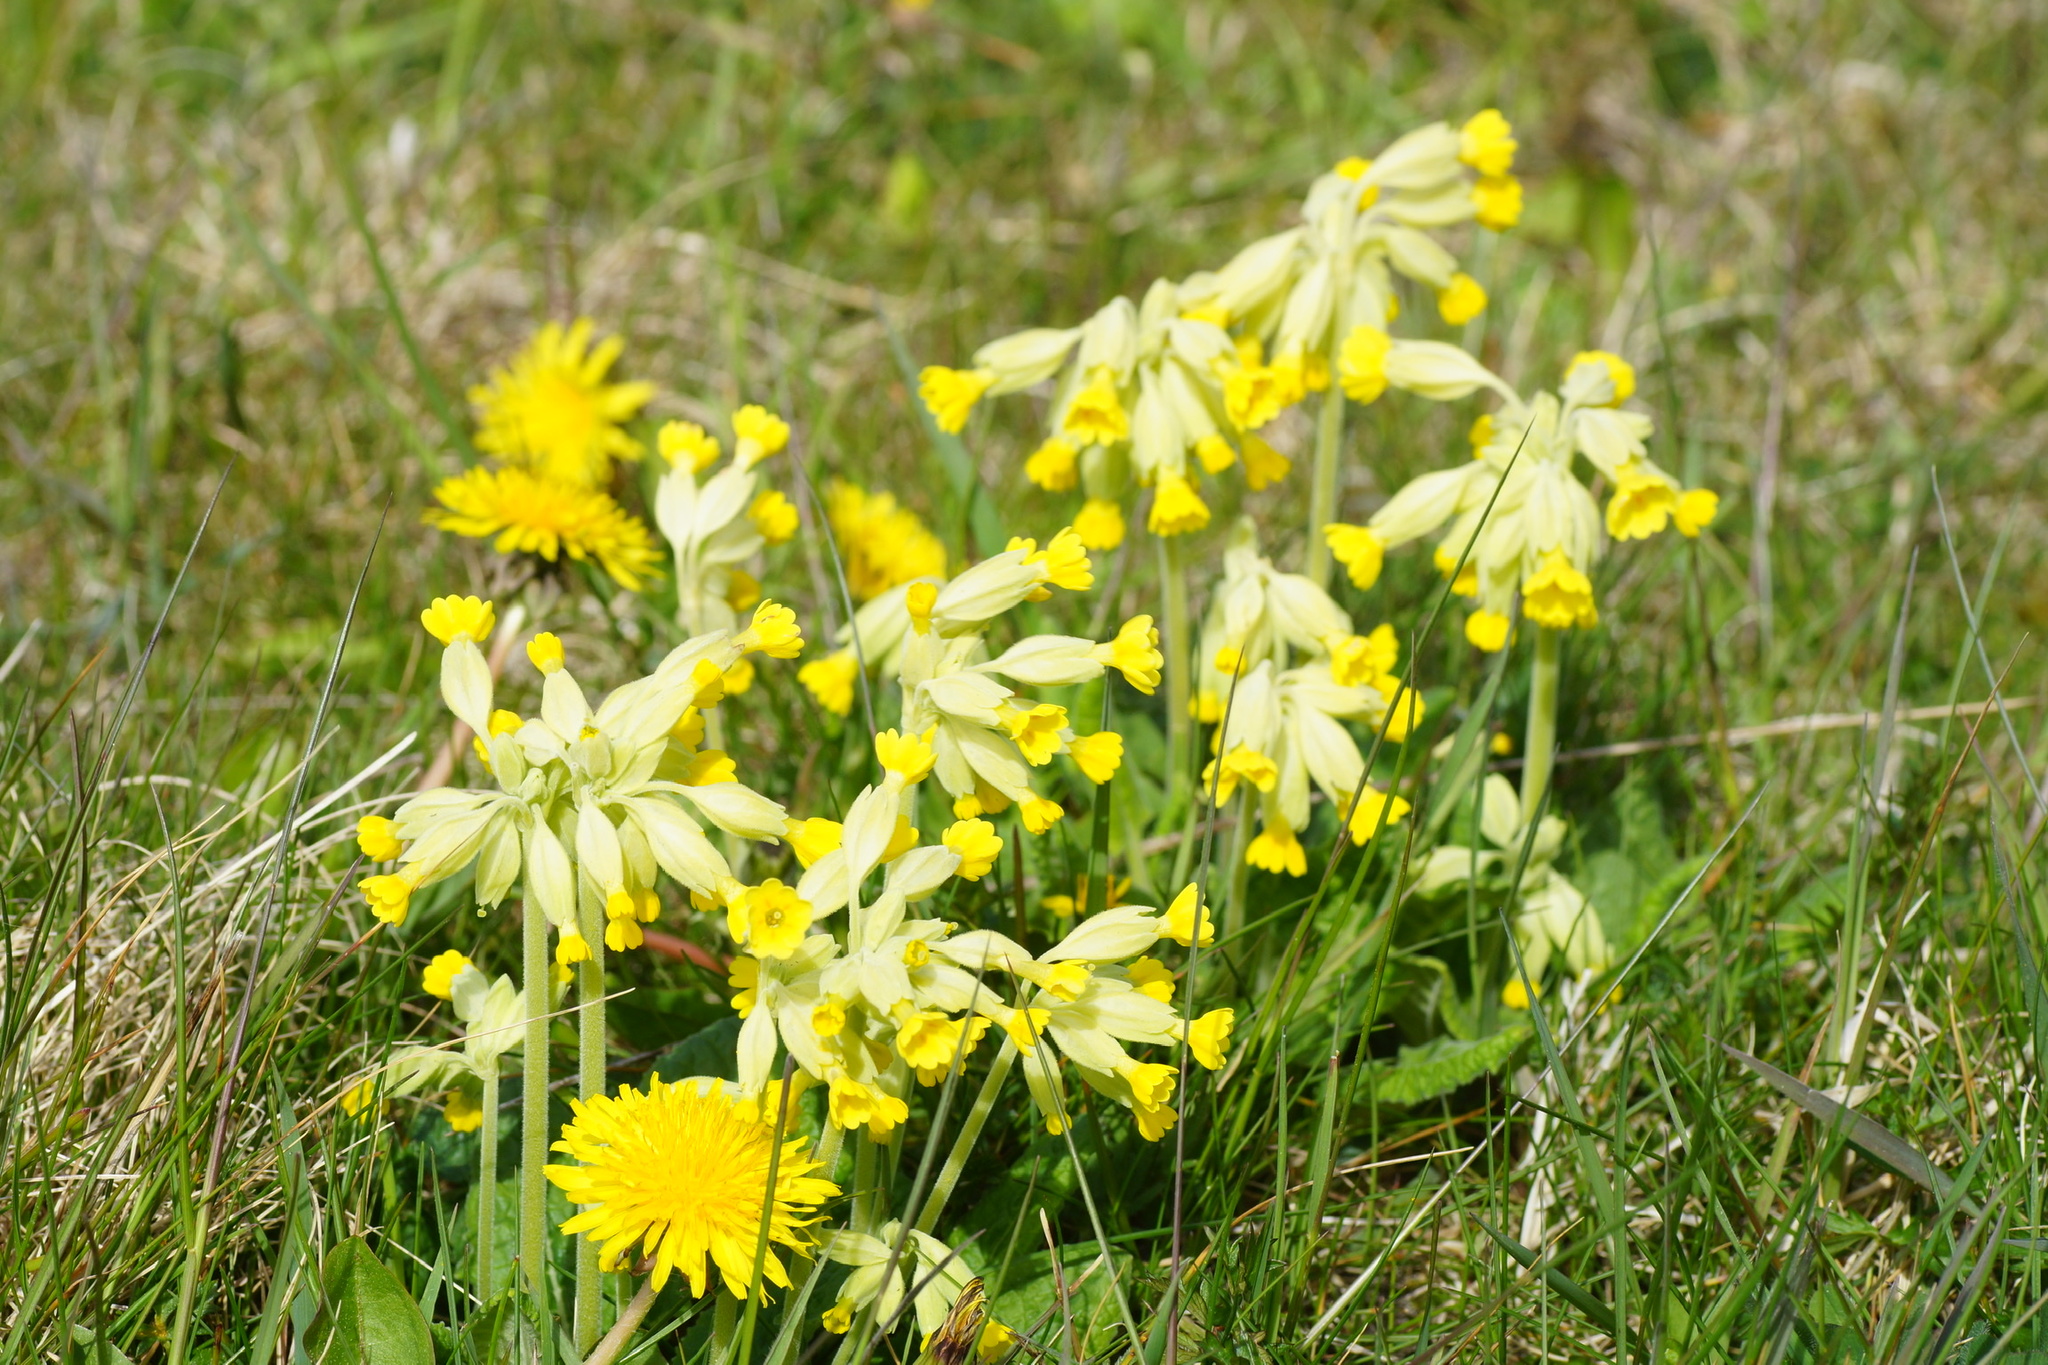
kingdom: Plantae
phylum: Tracheophyta
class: Magnoliopsida
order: Ericales
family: Primulaceae
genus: Primula
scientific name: Primula veris
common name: Cowslip
